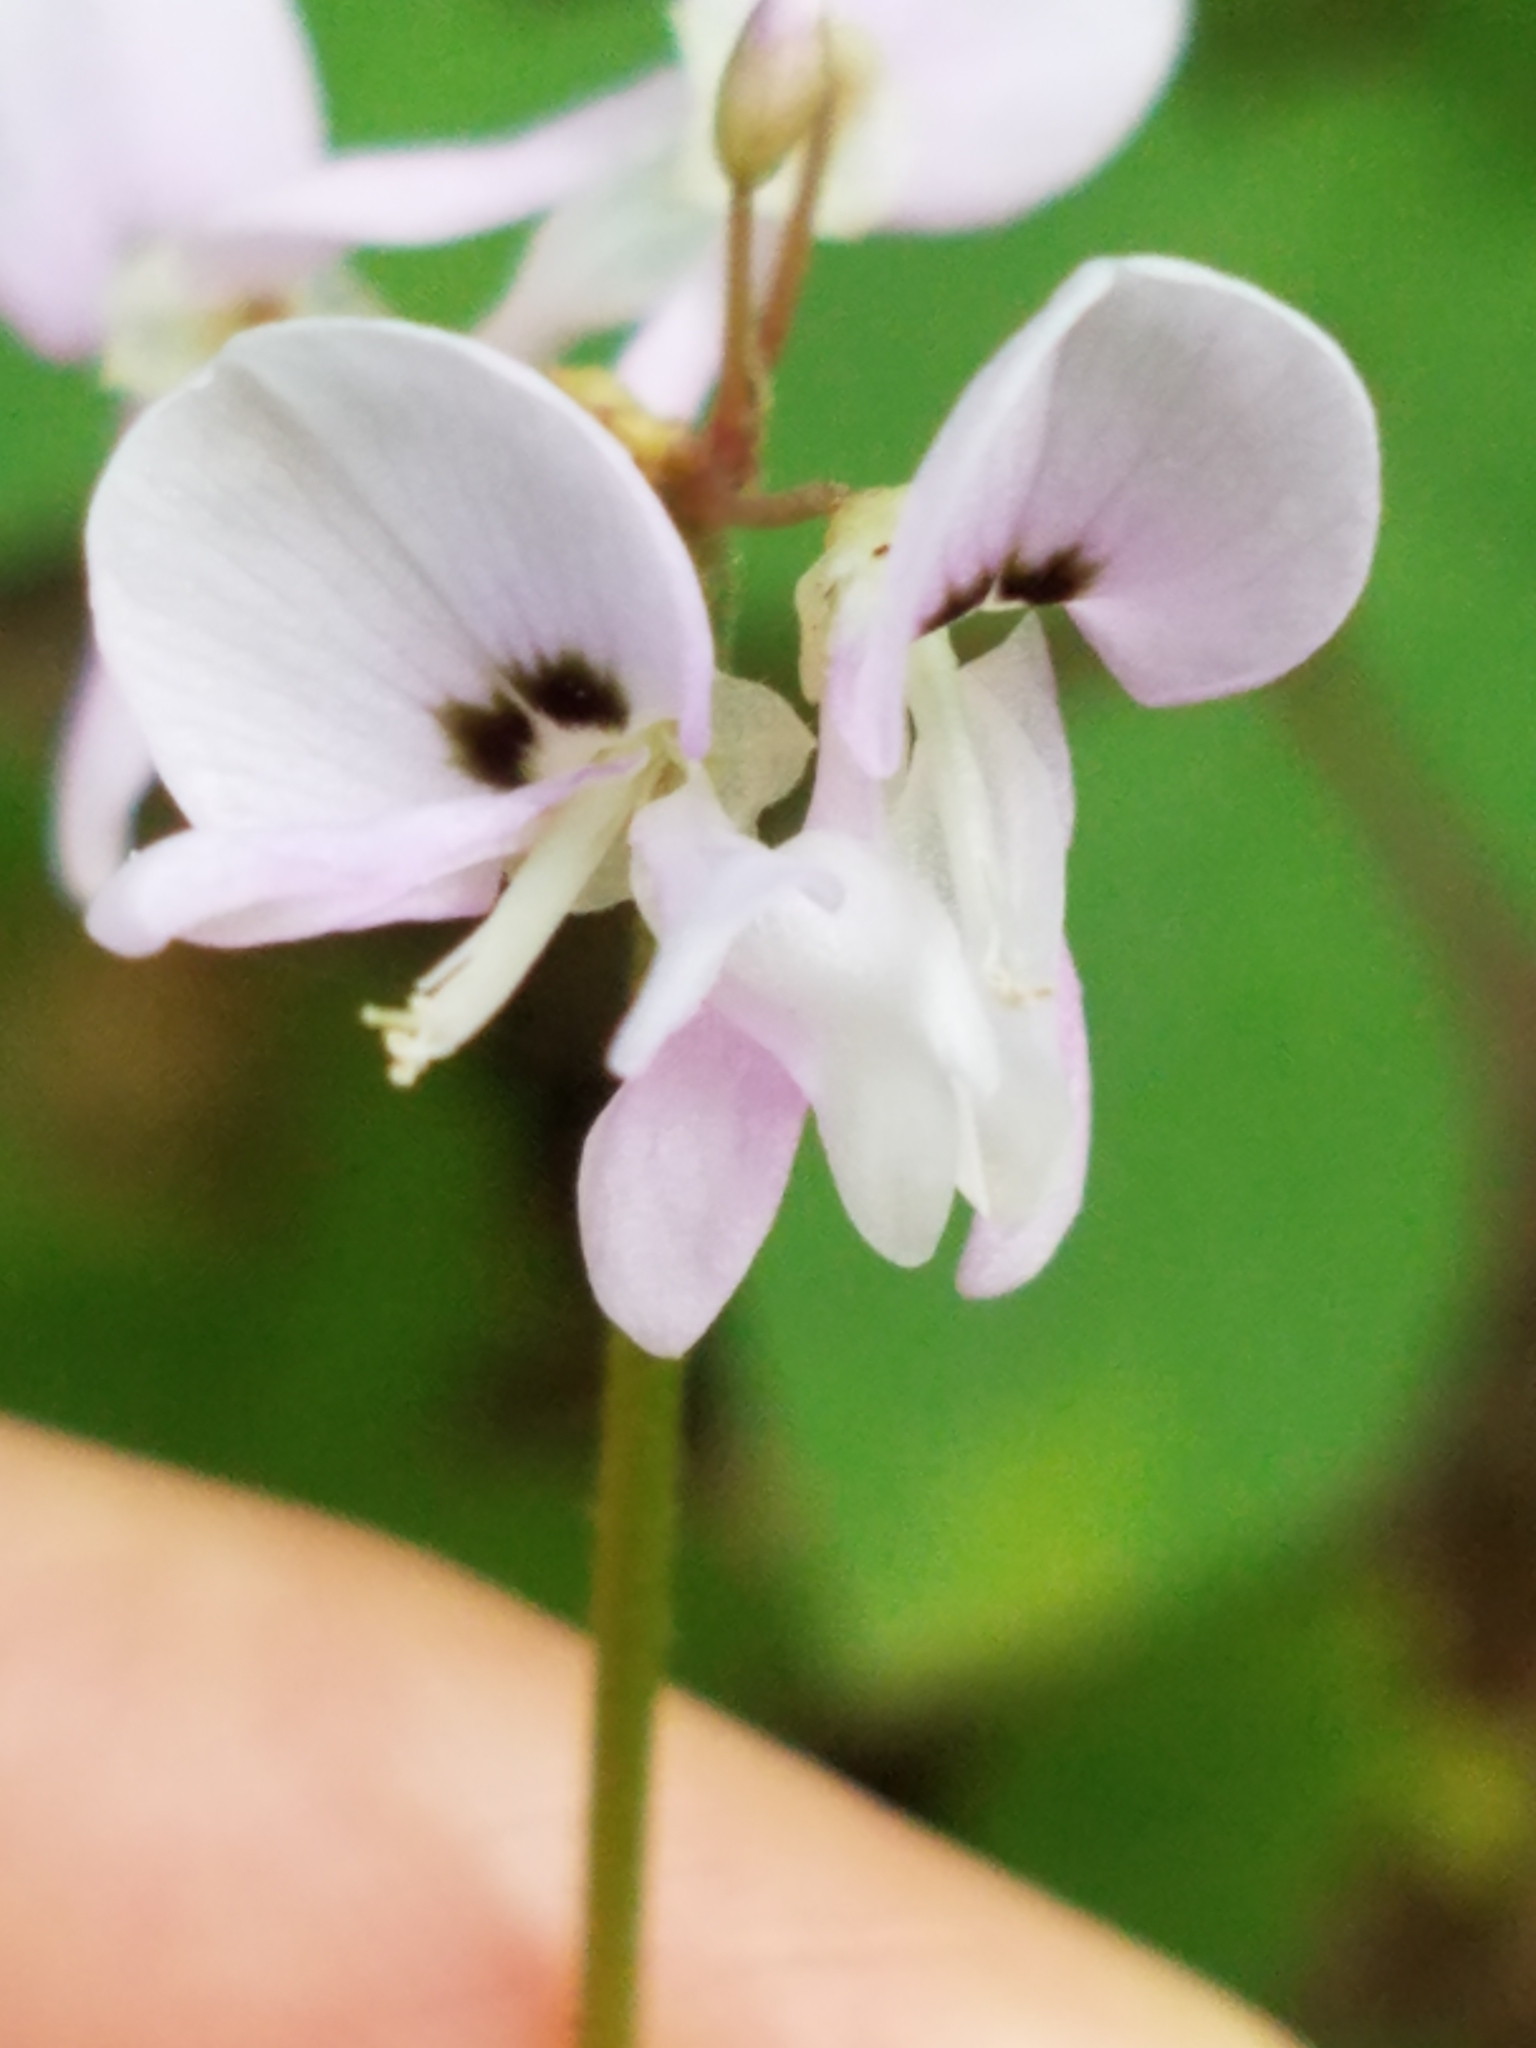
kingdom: Plantae
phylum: Tracheophyta
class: Magnoliopsida
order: Fabales
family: Fabaceae
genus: Hylodesmum
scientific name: Hylodesmum nudiflorum
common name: Bare-stemmed tick-trefoil
